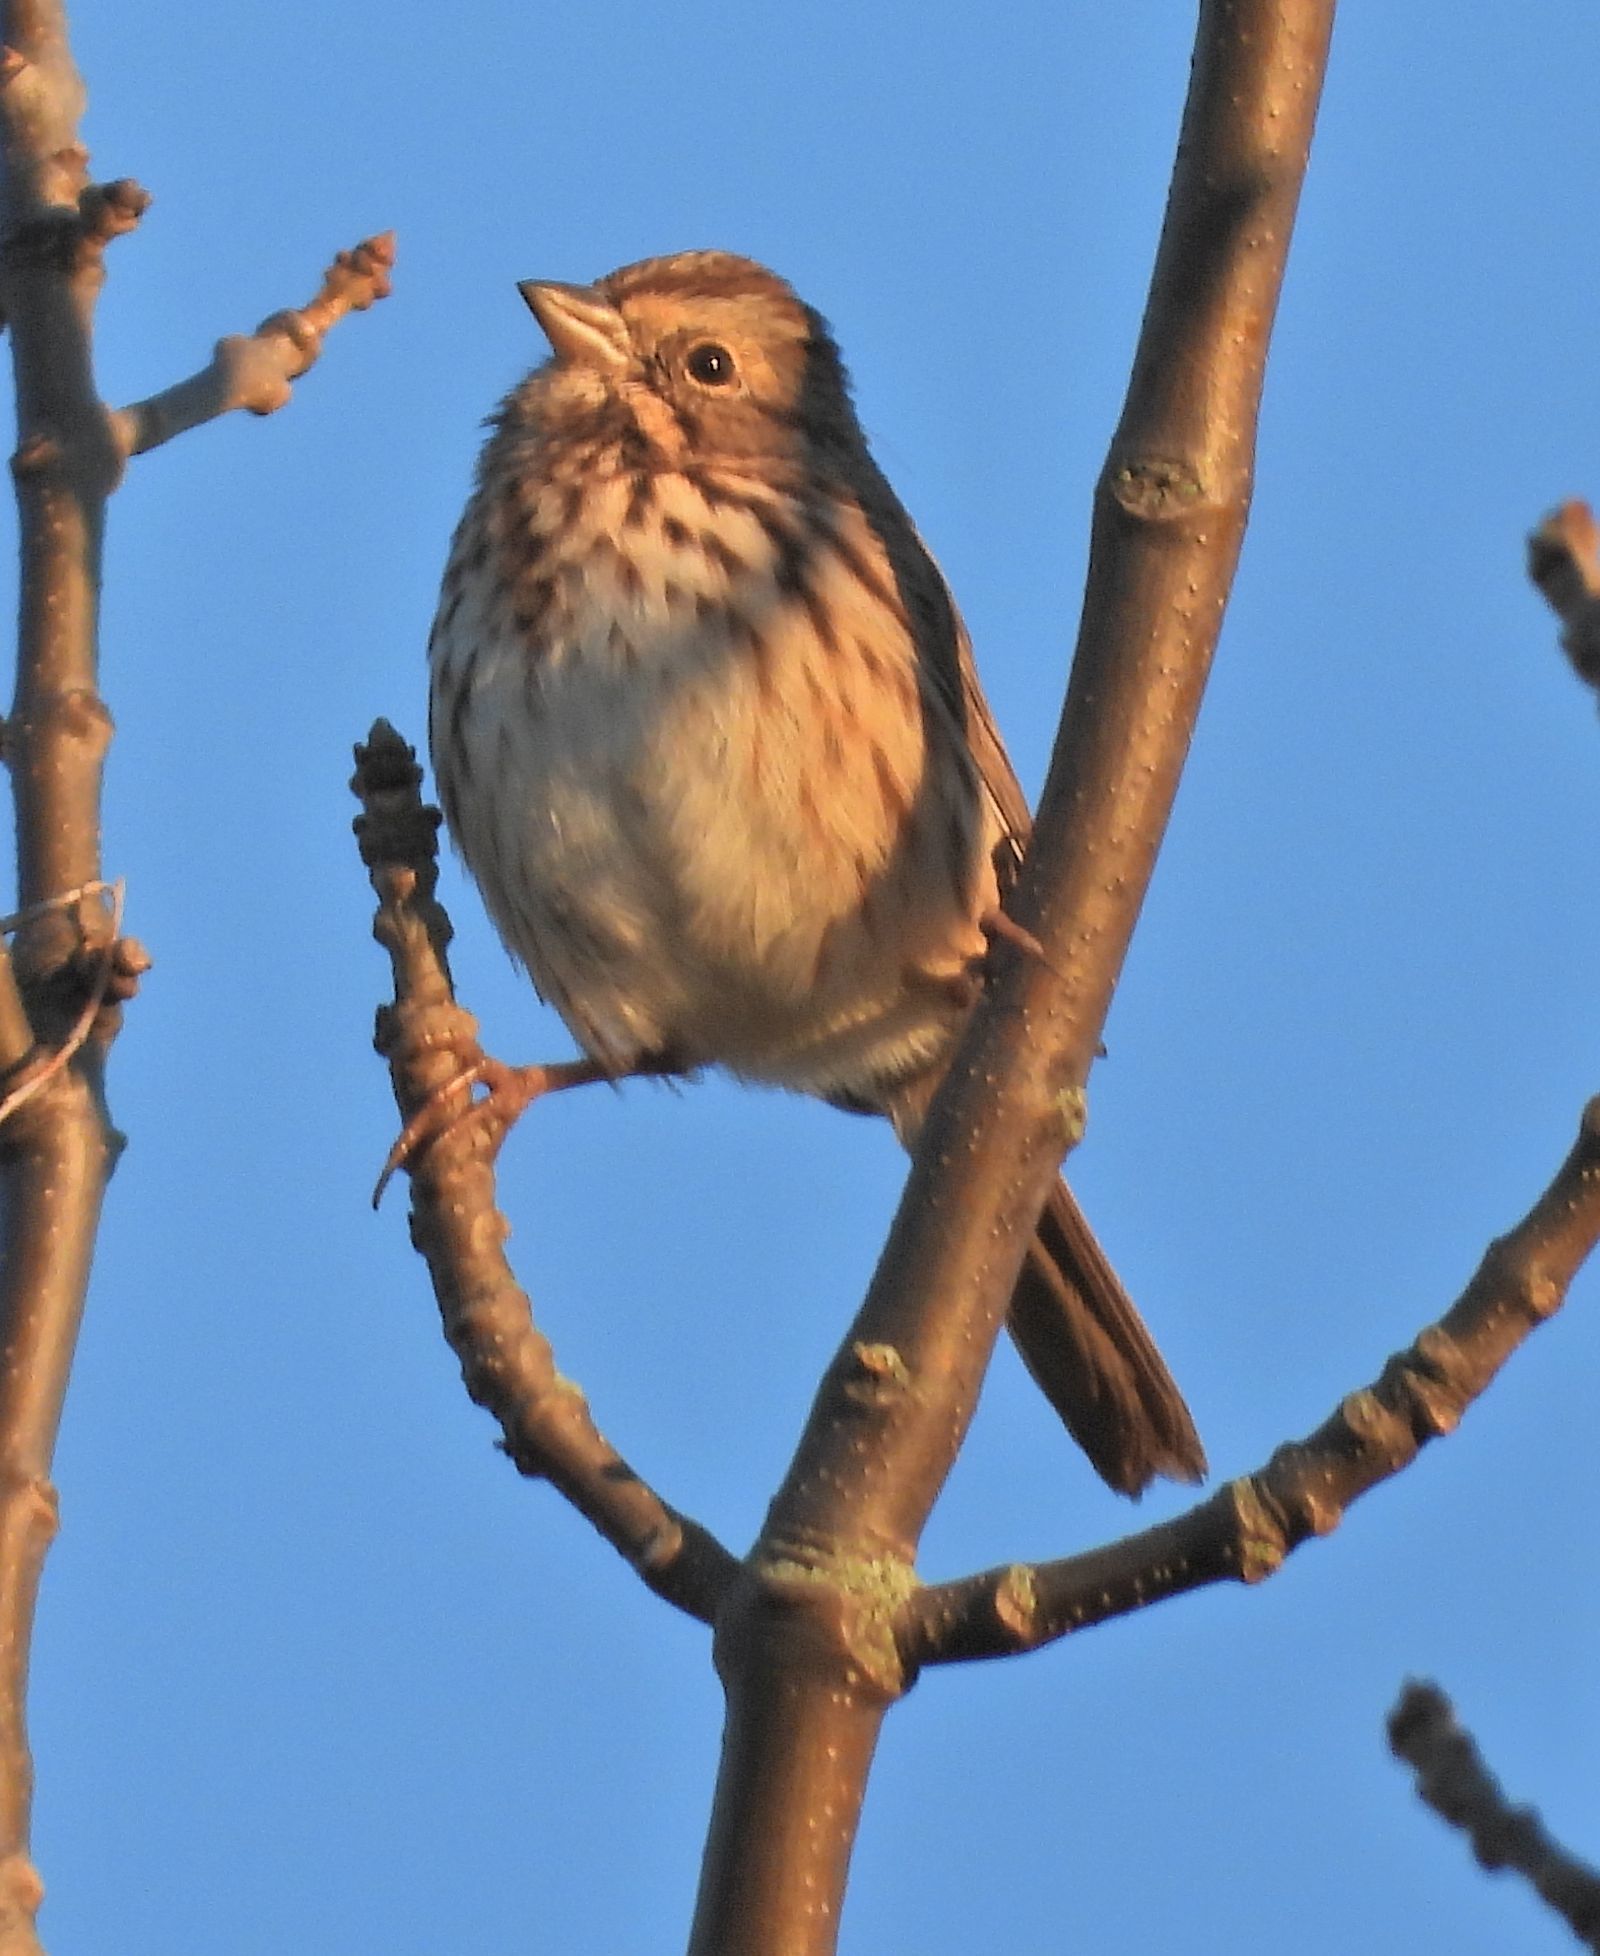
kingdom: Animalia
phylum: Chordata
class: Aves
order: Passeriformes
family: Passerellidae
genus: Melospiza
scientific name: Melospiza melodia
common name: Song sparrow
